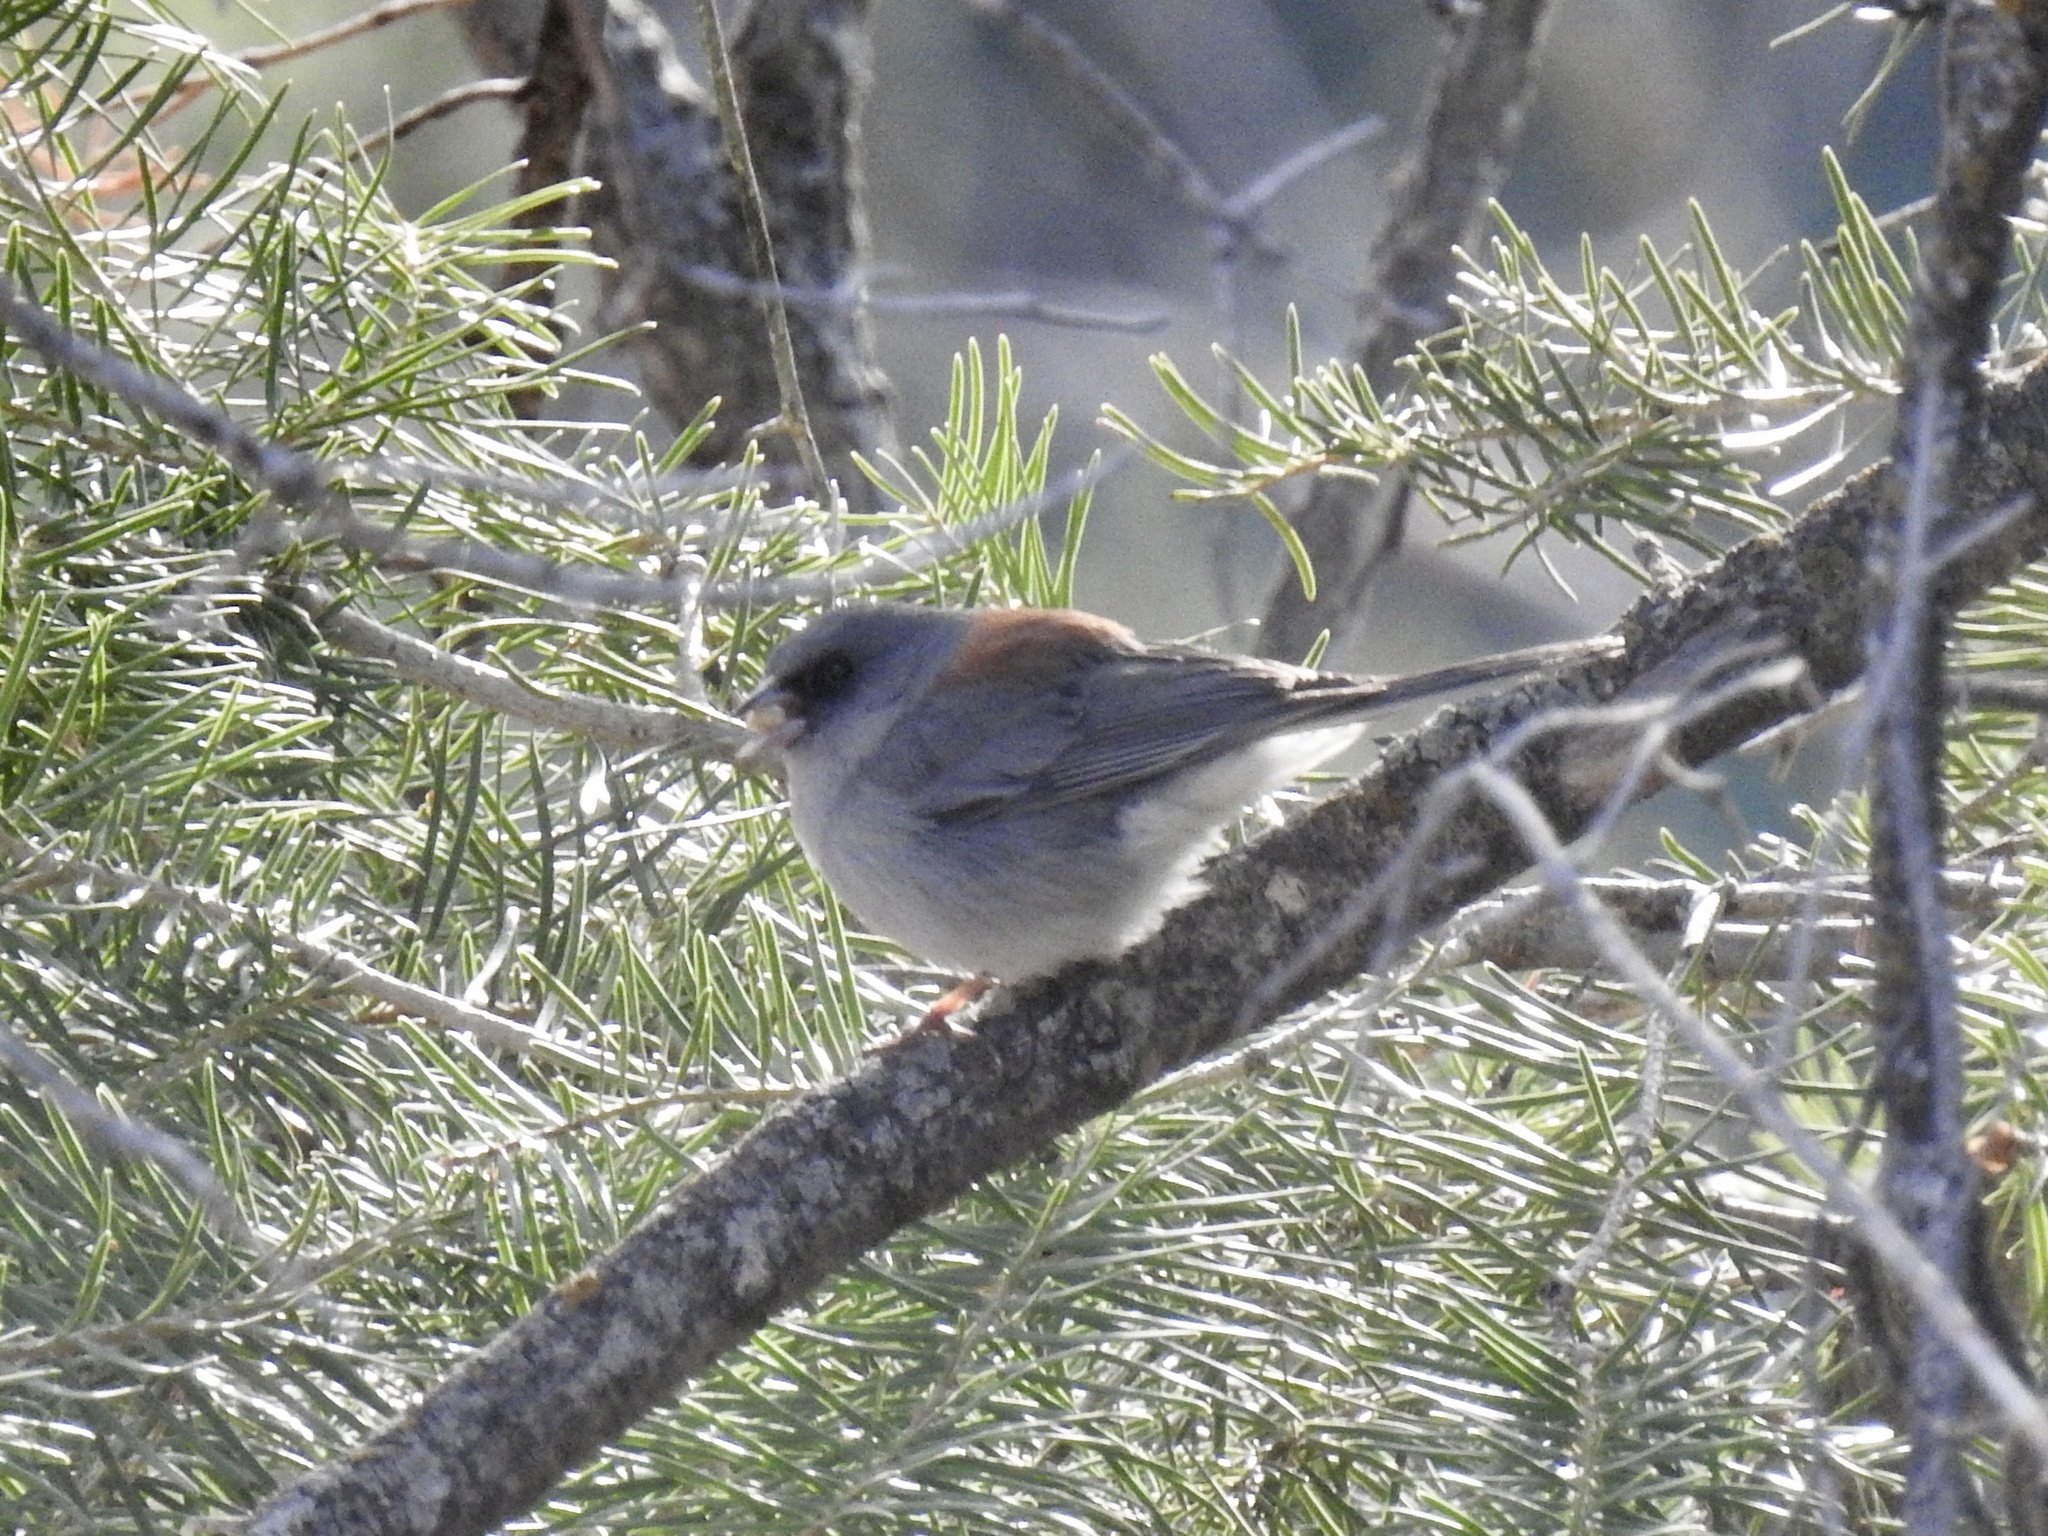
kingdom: Animalia
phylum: Chordata
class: Aves
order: Passeriformes
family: Passerellidae
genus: Junco
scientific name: Junco hyemalis
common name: Dark-eyed junco
